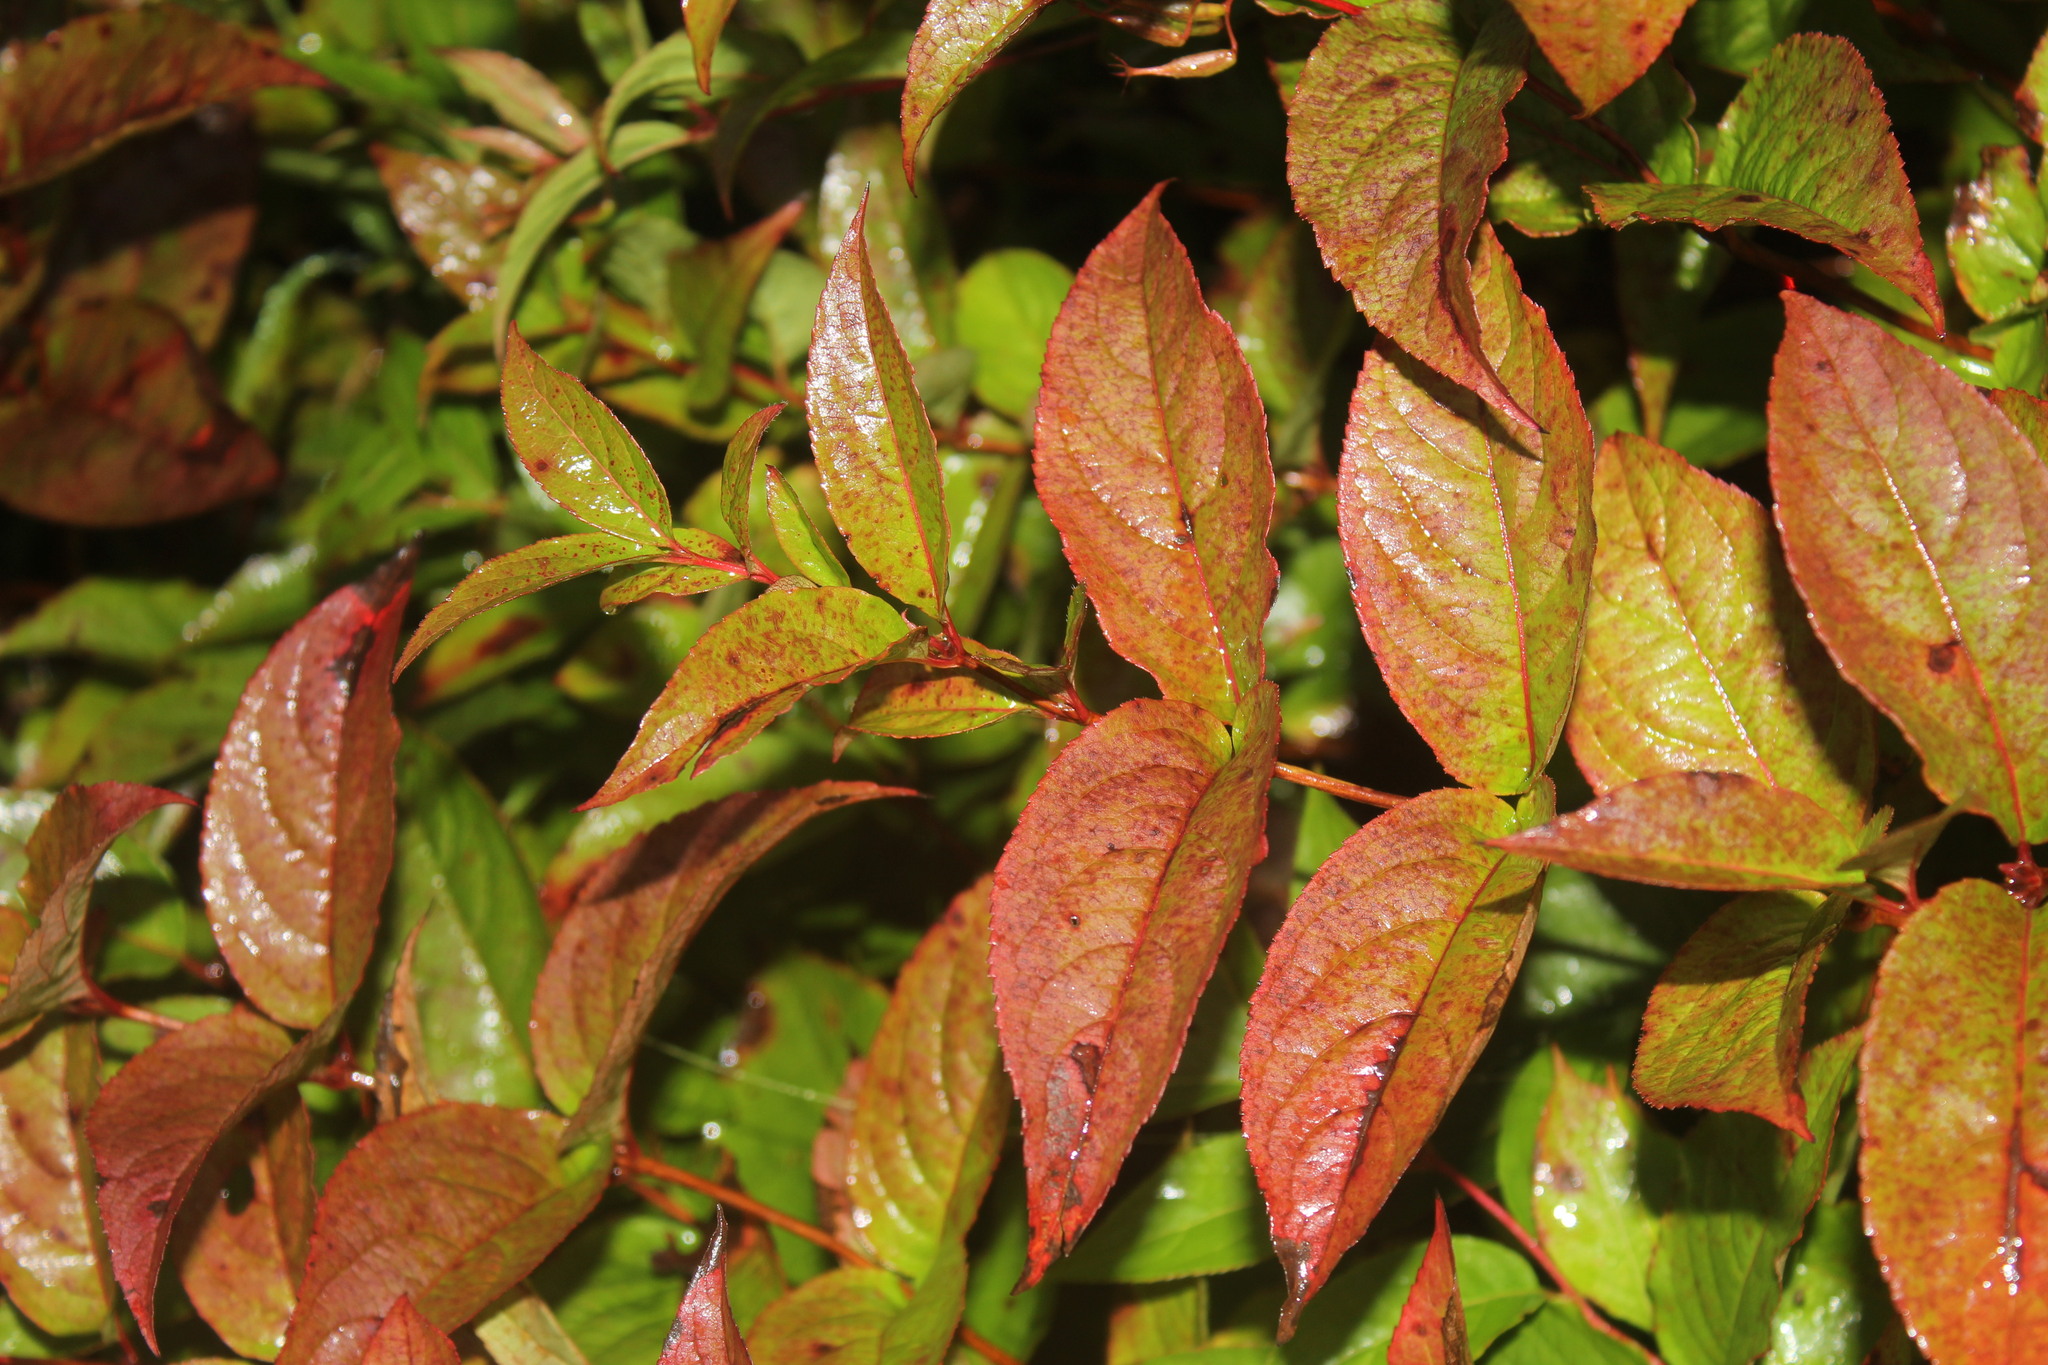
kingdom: Plantae
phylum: Tracheophyta
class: Magnoliopsida
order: Dipsacales
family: Caprifoliaceae
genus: Diervilla
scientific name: Diervilla lonicera
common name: Bush-honeysuckle
